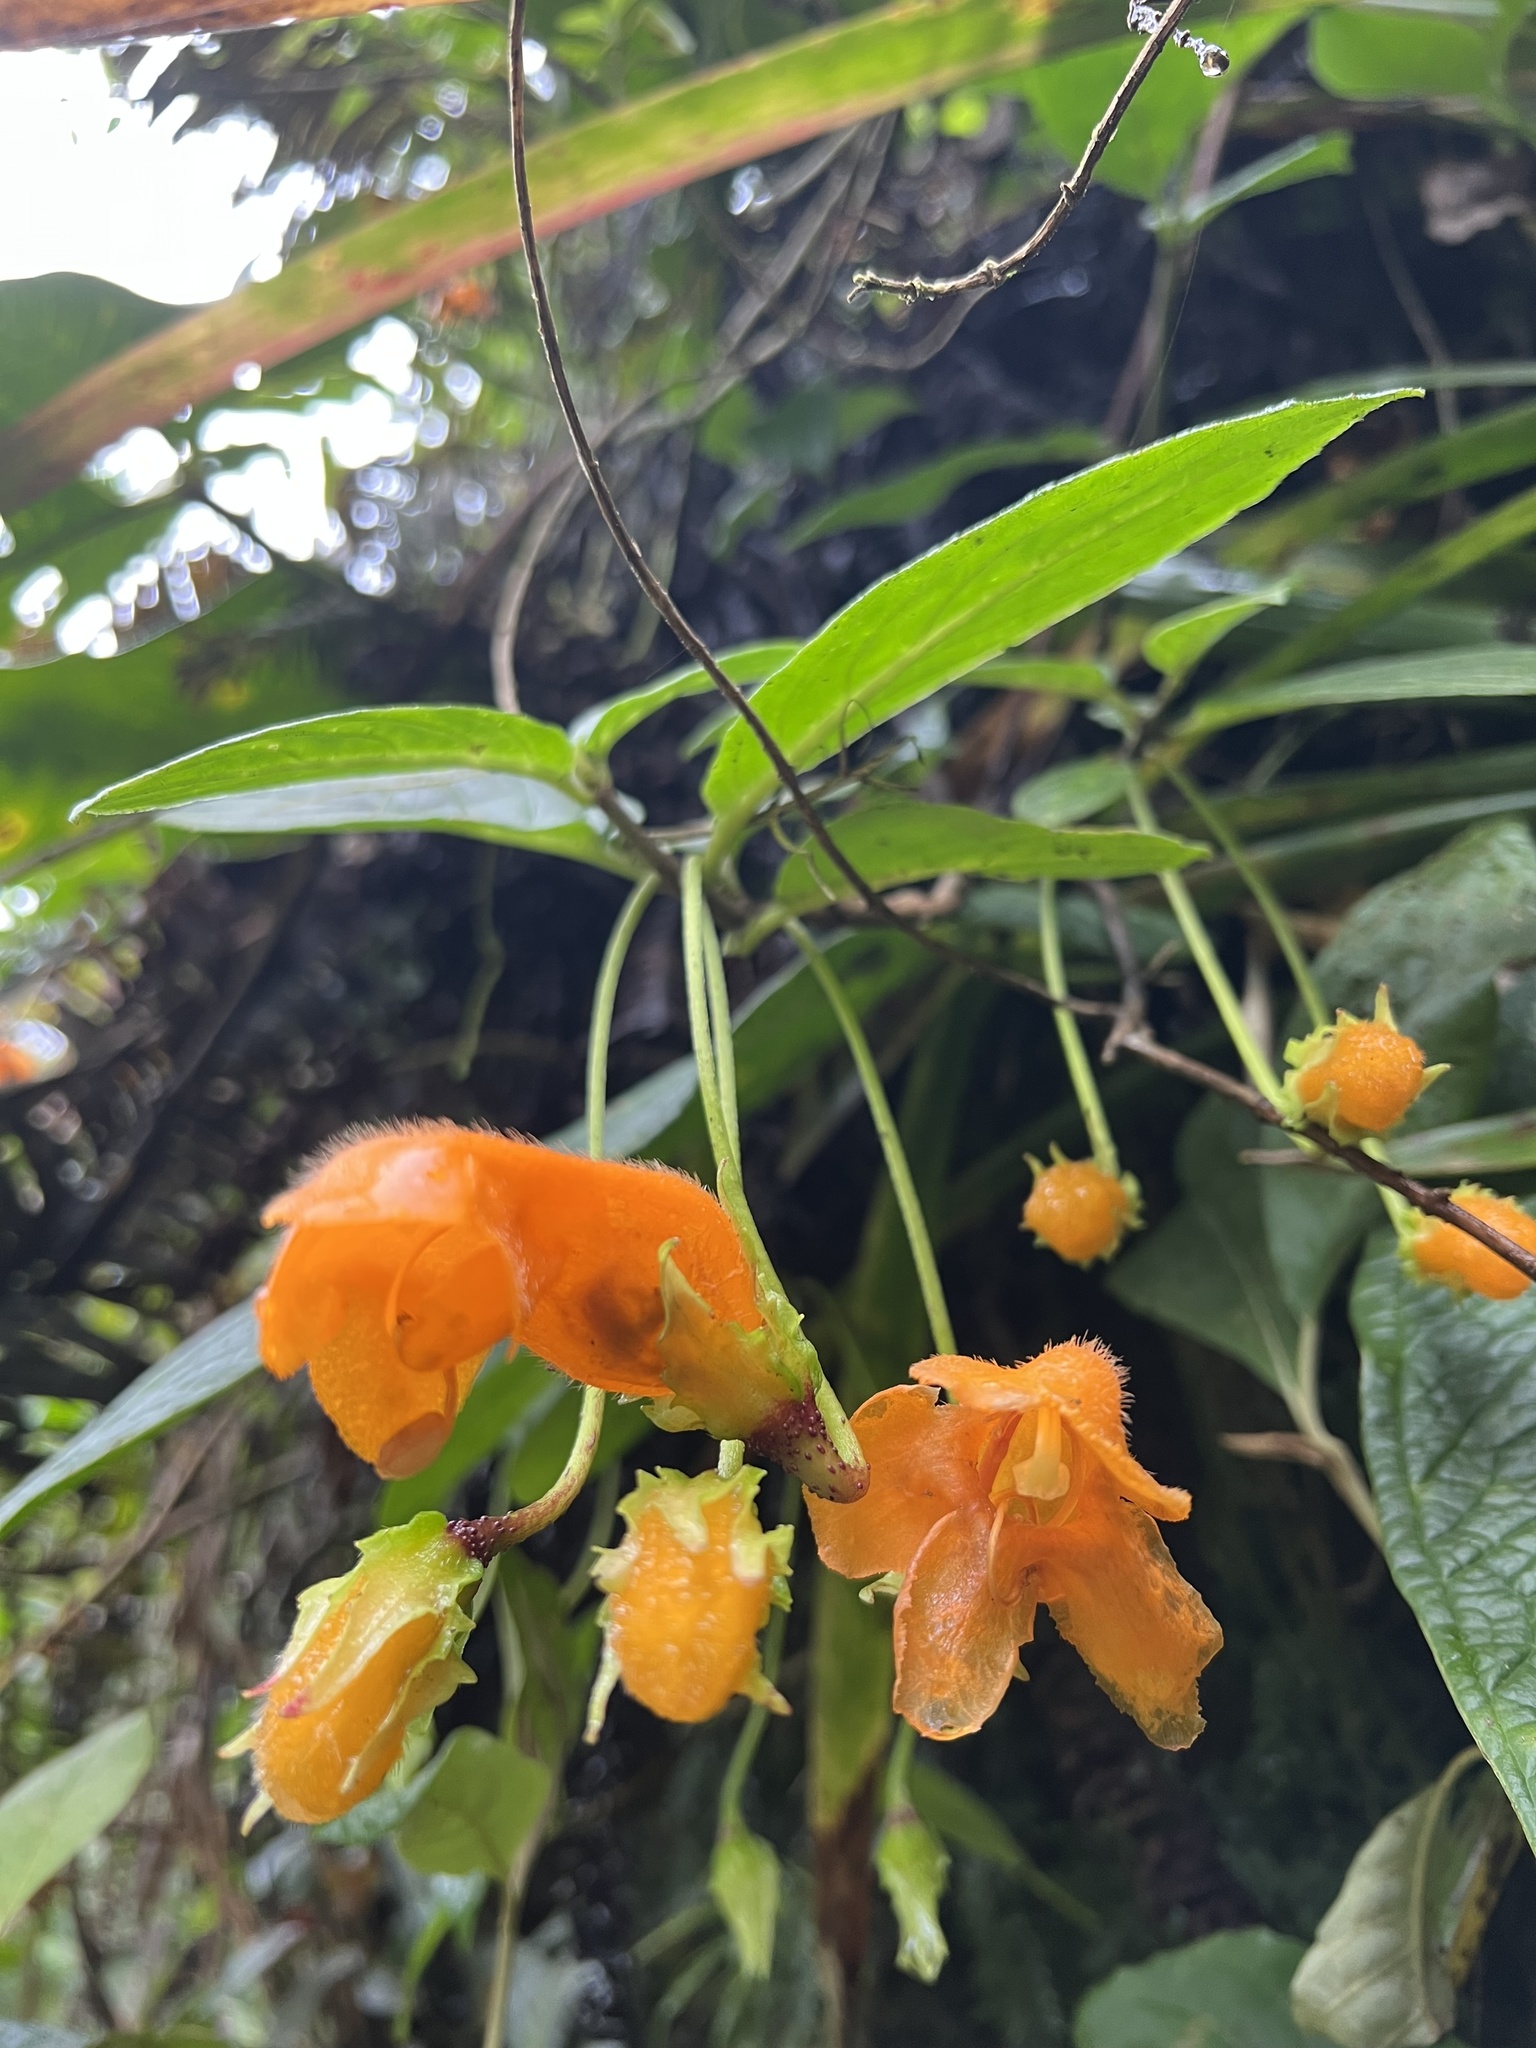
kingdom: Plantae
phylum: Tracheophyta
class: Magnoliopsida
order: Lamiales
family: Gesneriaceae
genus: Columnea
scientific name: Columnea strigosa
